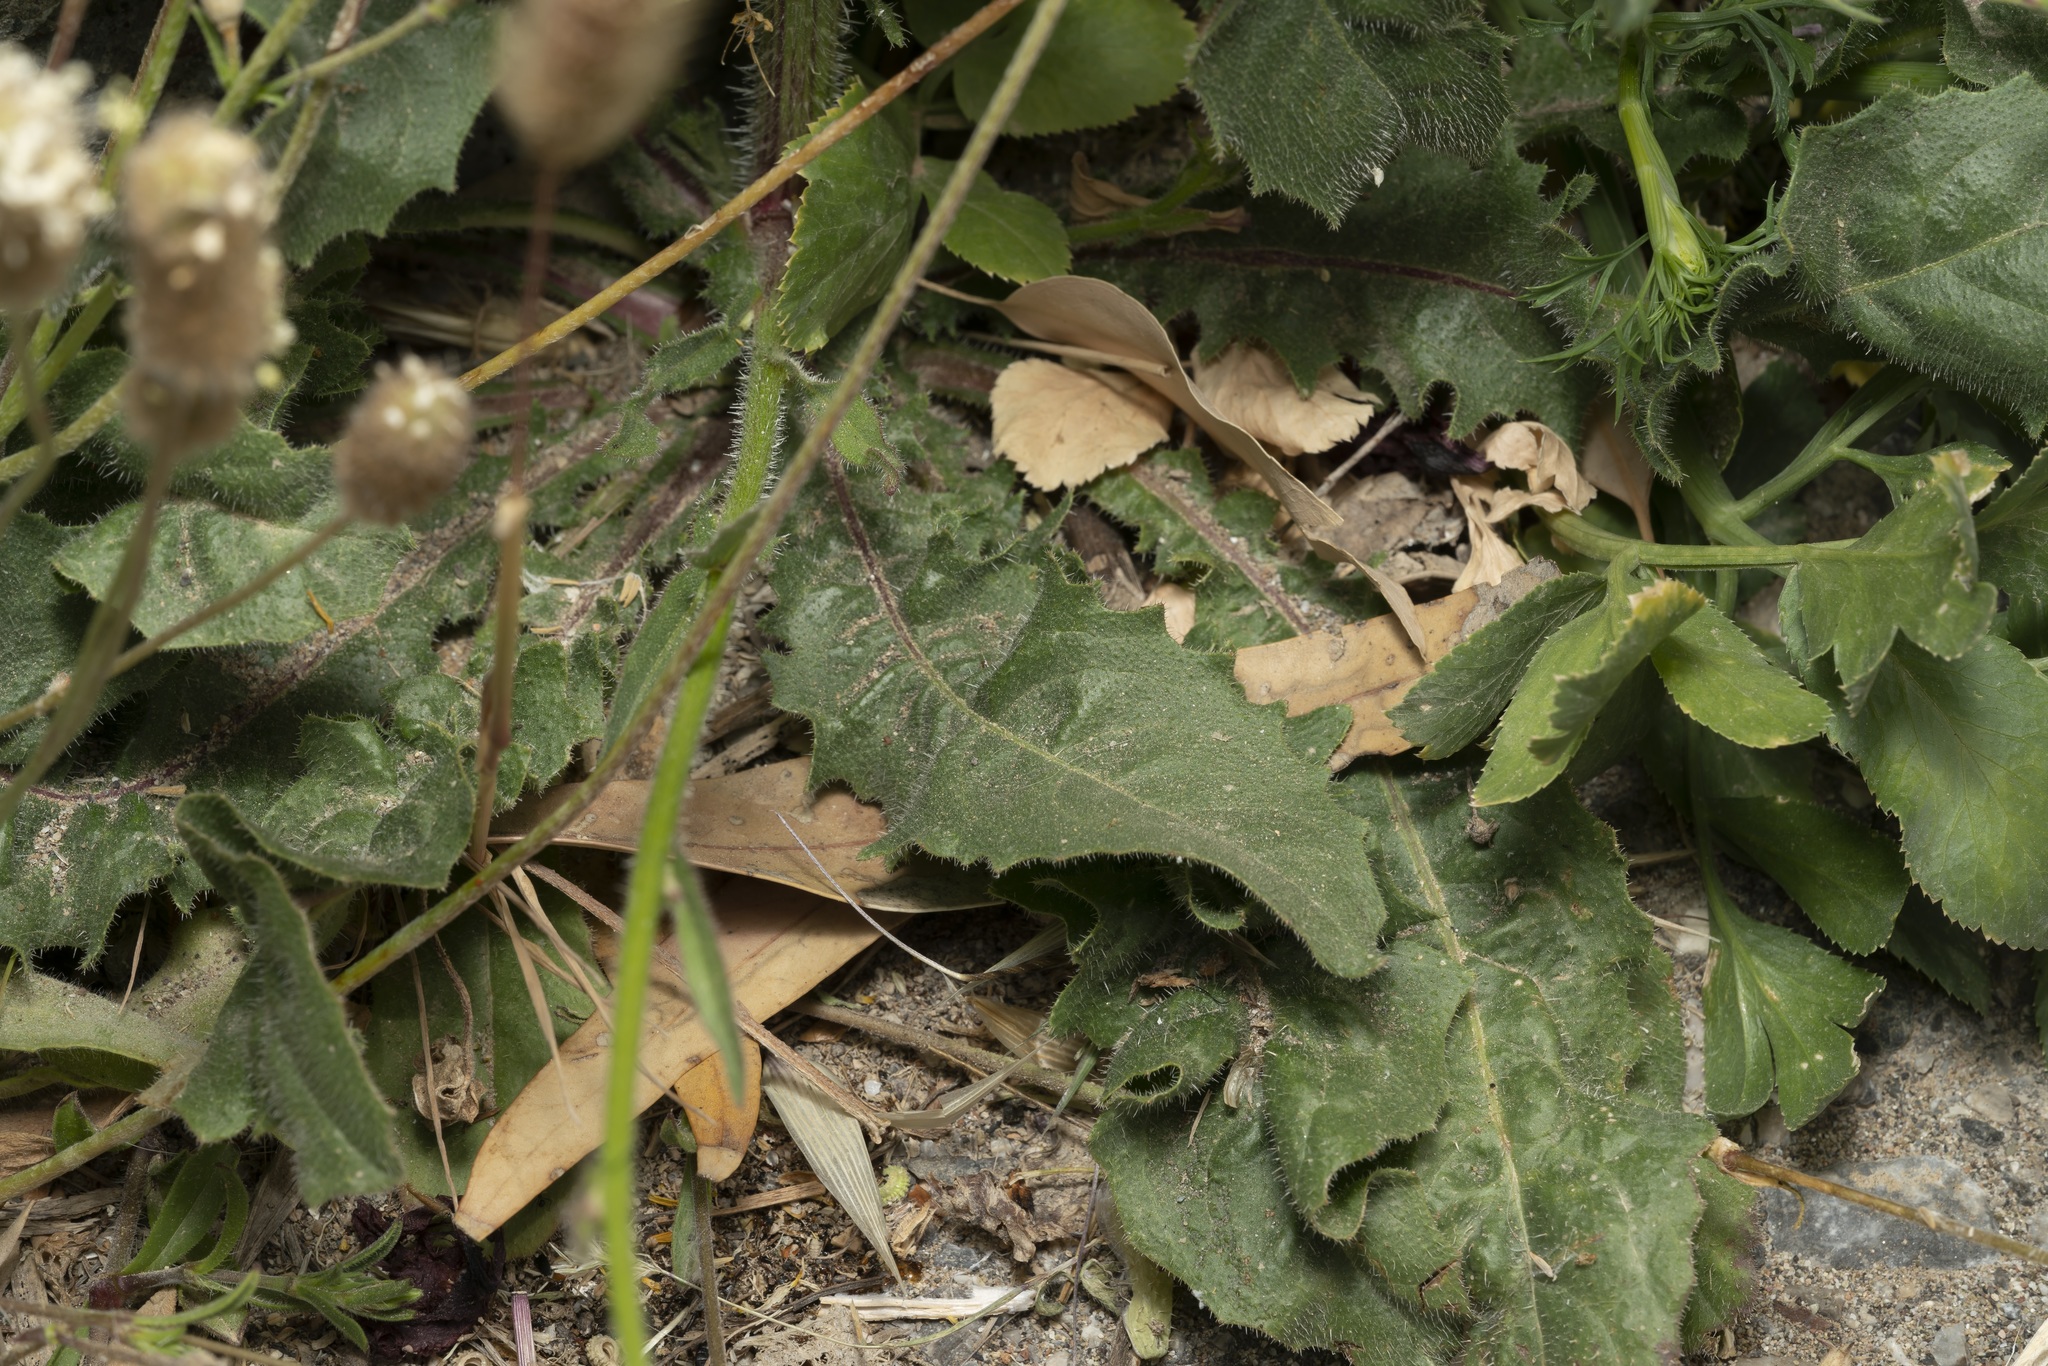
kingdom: Plantae
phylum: Tracheophyta
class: Magnoliopsida
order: Asterales
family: Asteraceae
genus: Picris
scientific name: Picris rhagadioloides
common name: Oxtongue
